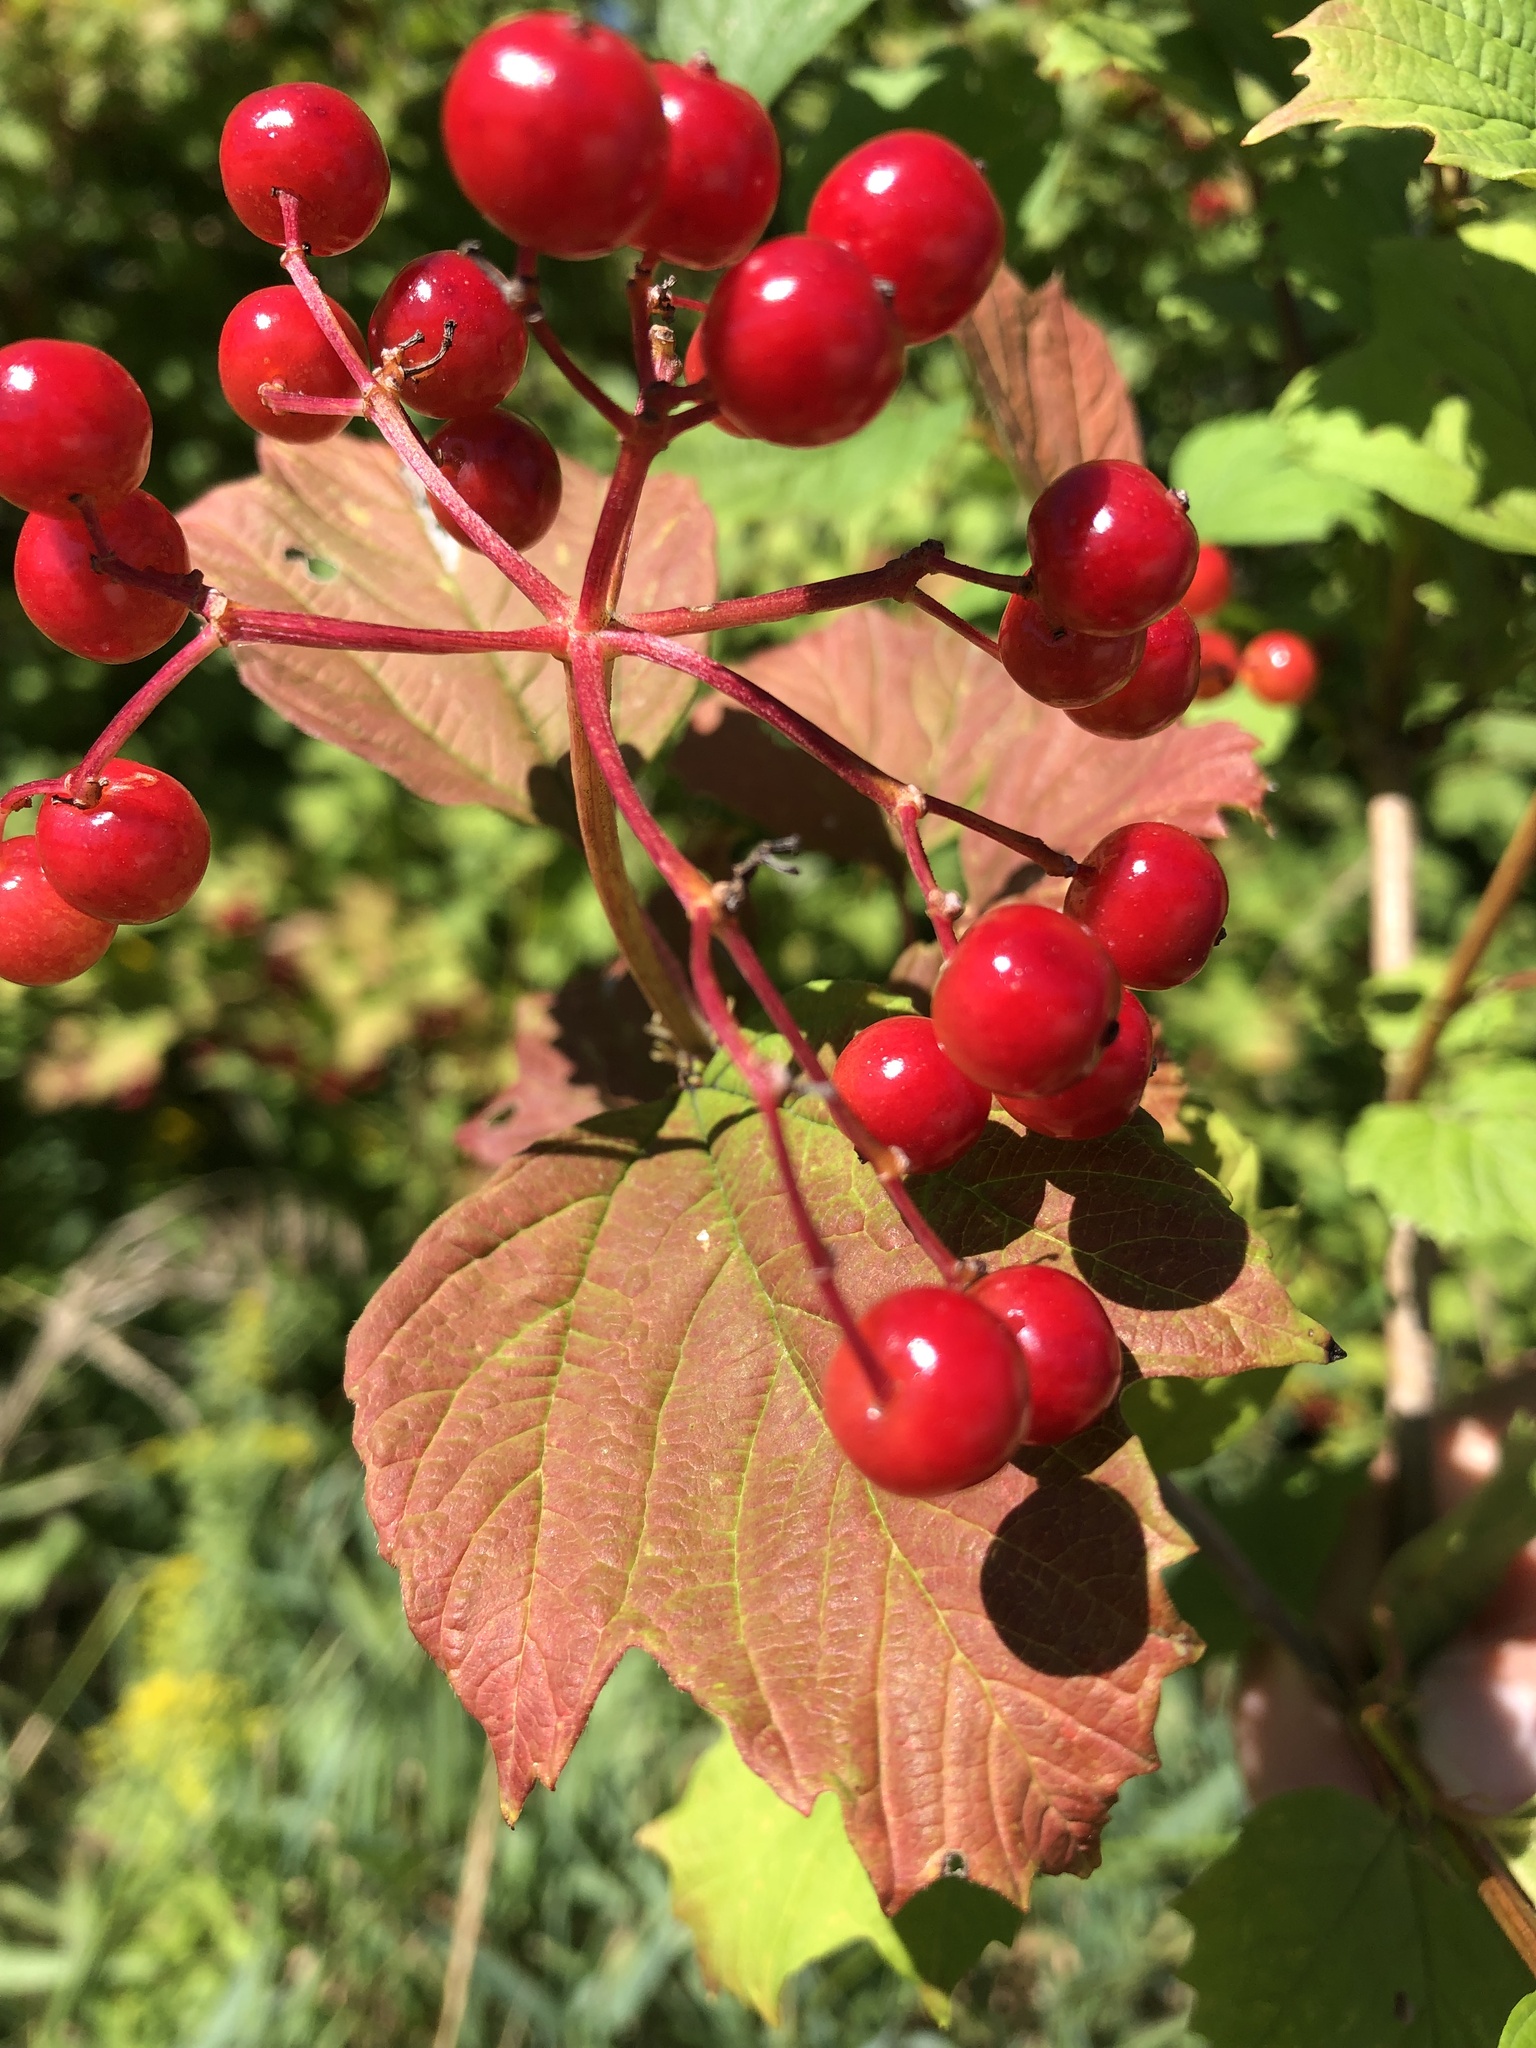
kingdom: Plantae
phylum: Tracheophyta
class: Magnoliopsida
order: Dipsacales
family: Viburnaceae
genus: Viburnum
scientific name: Viburnum opulus
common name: Guelder-rose
